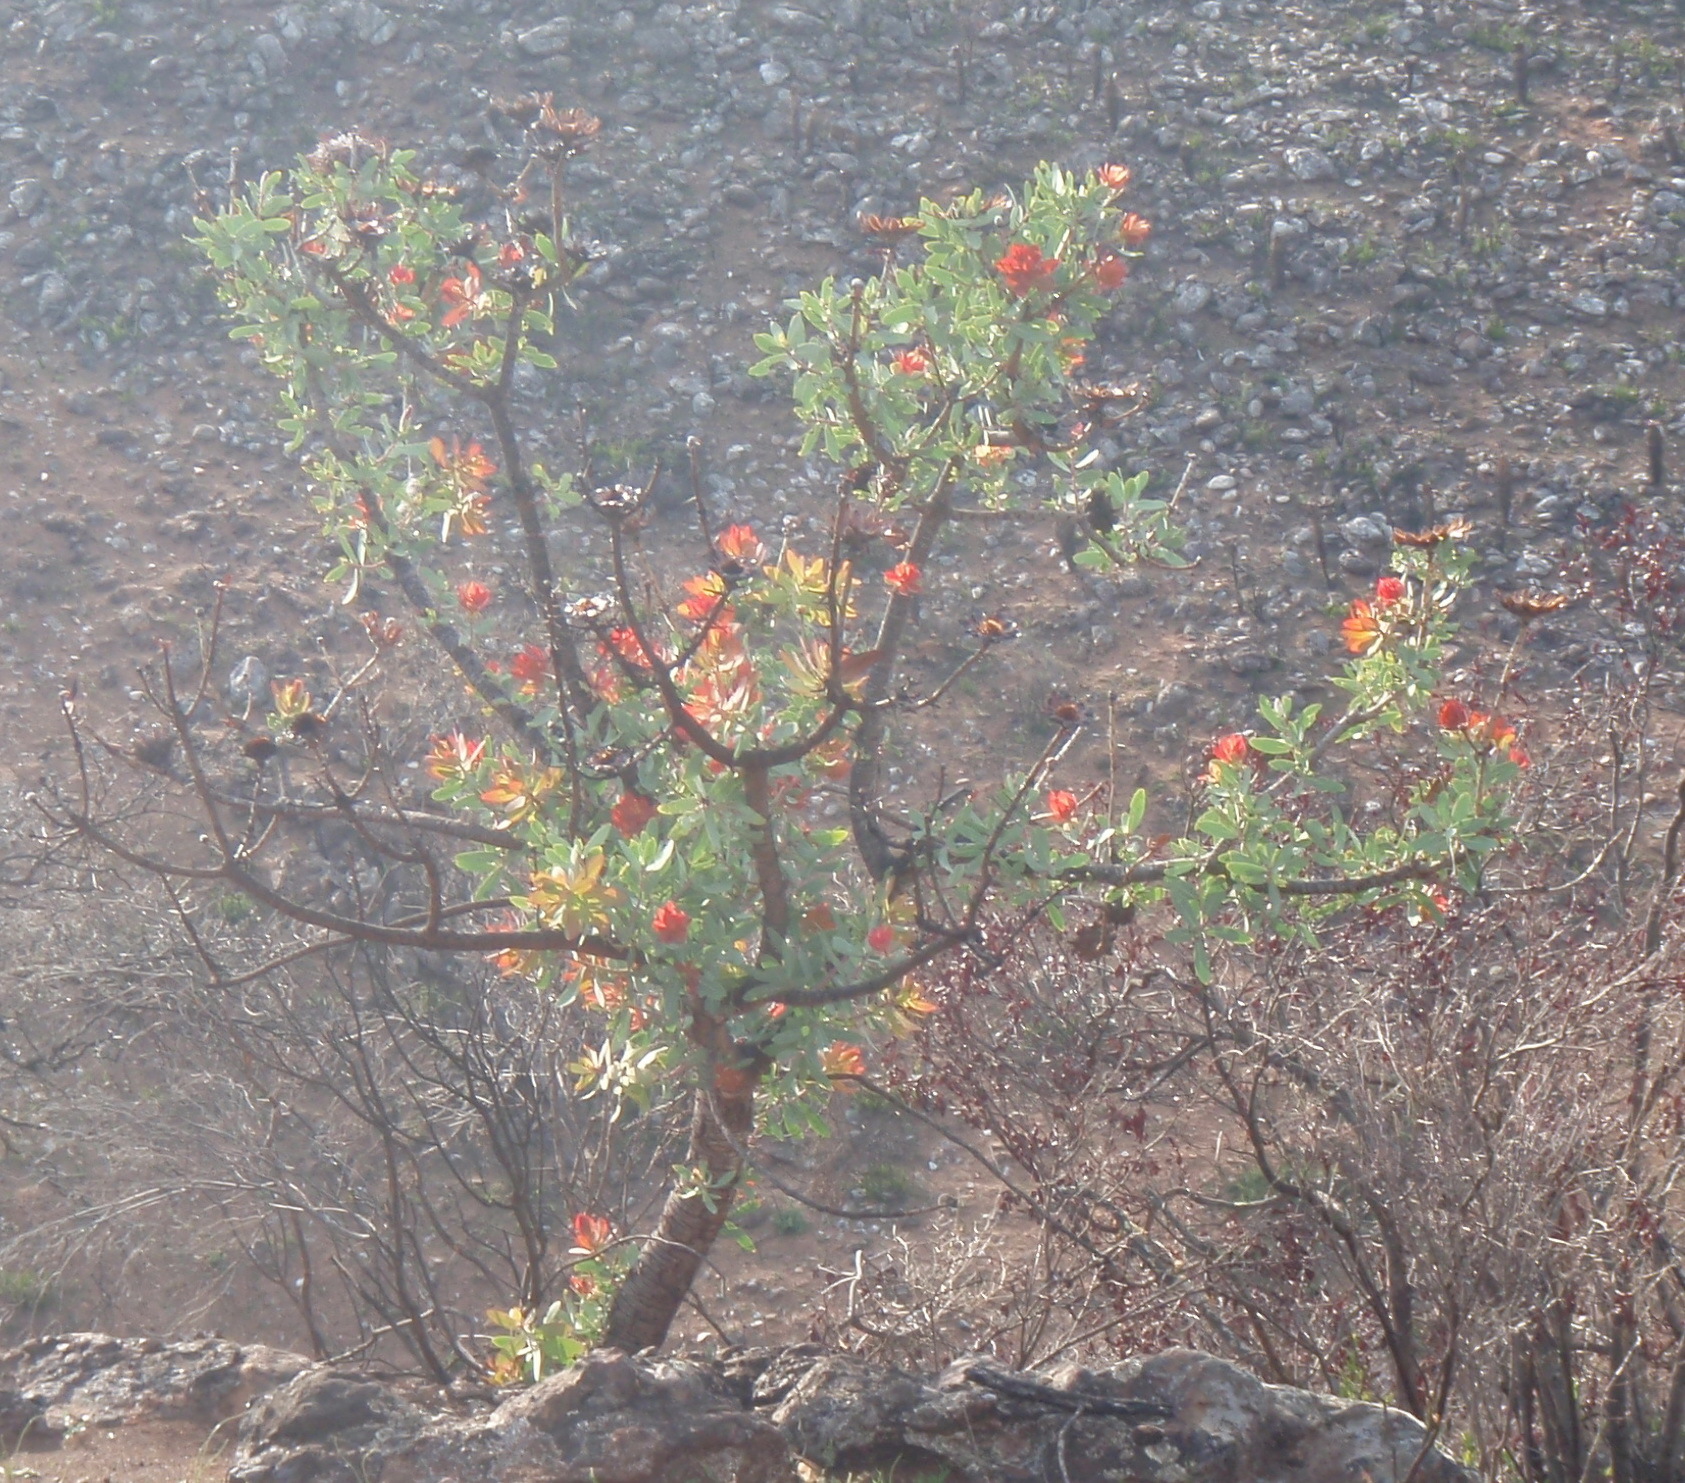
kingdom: Plantae
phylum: Tracheophyta
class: Magnoliopsida
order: Proteales
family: Proteaceae
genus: Protea
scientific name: Protea nitida
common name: Tree protea
